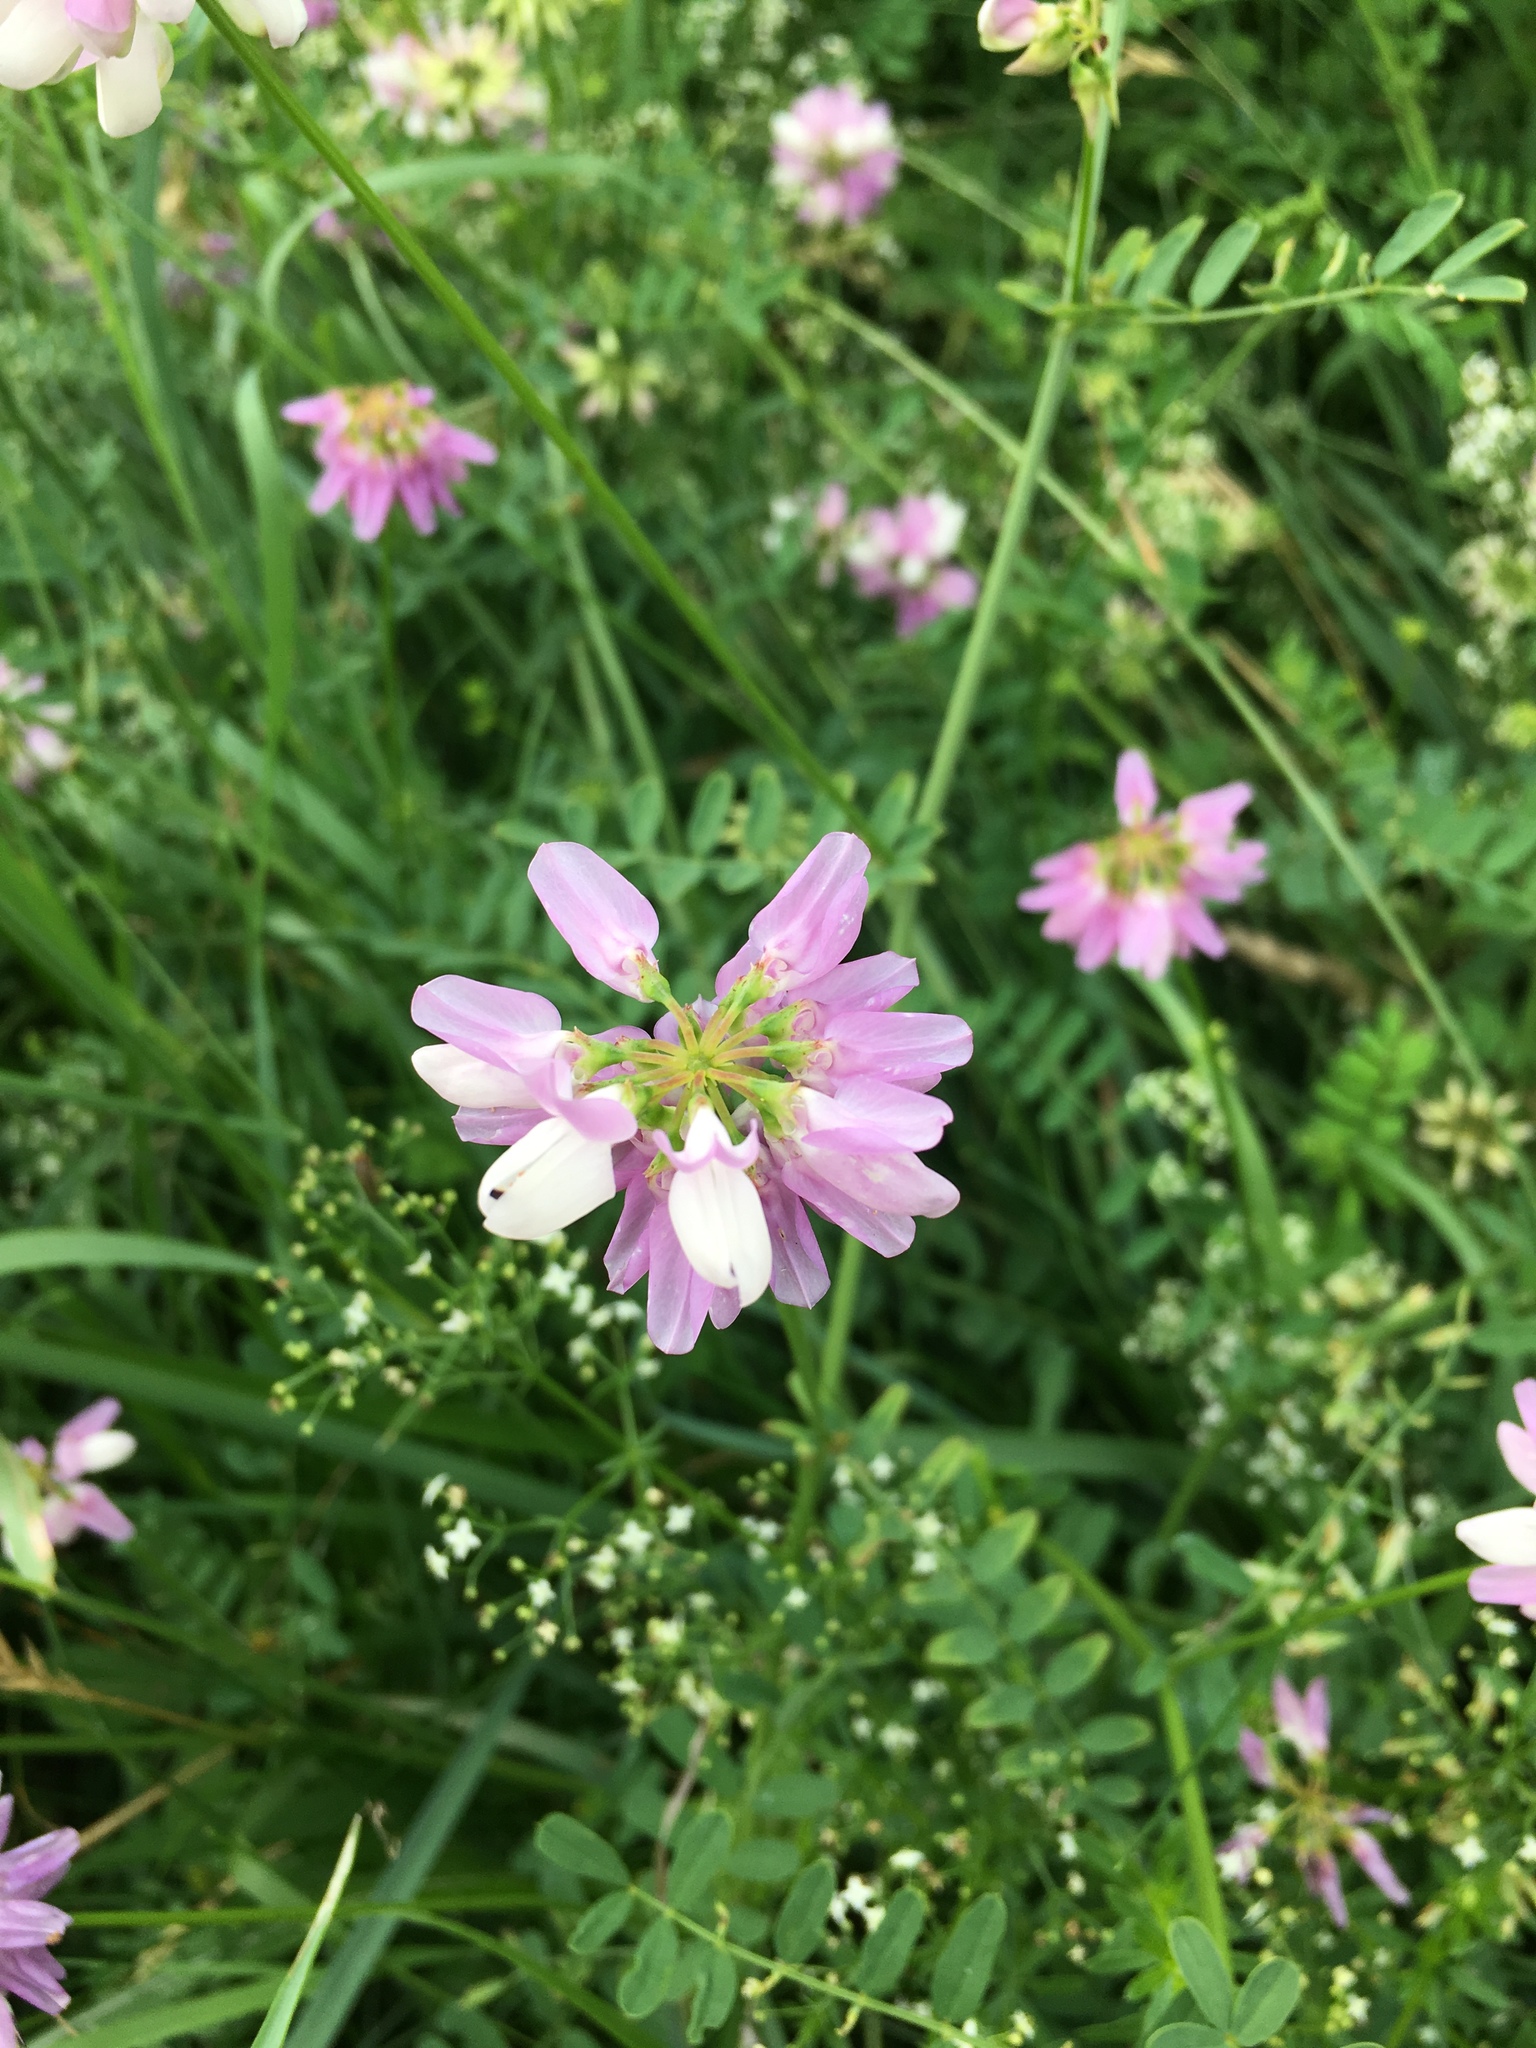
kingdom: Plantae
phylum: Tracheophyta
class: Magnoliopsida
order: Fabales
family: Fabaceae
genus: Coronilla
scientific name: Coronilla varia
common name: Crownvetch
